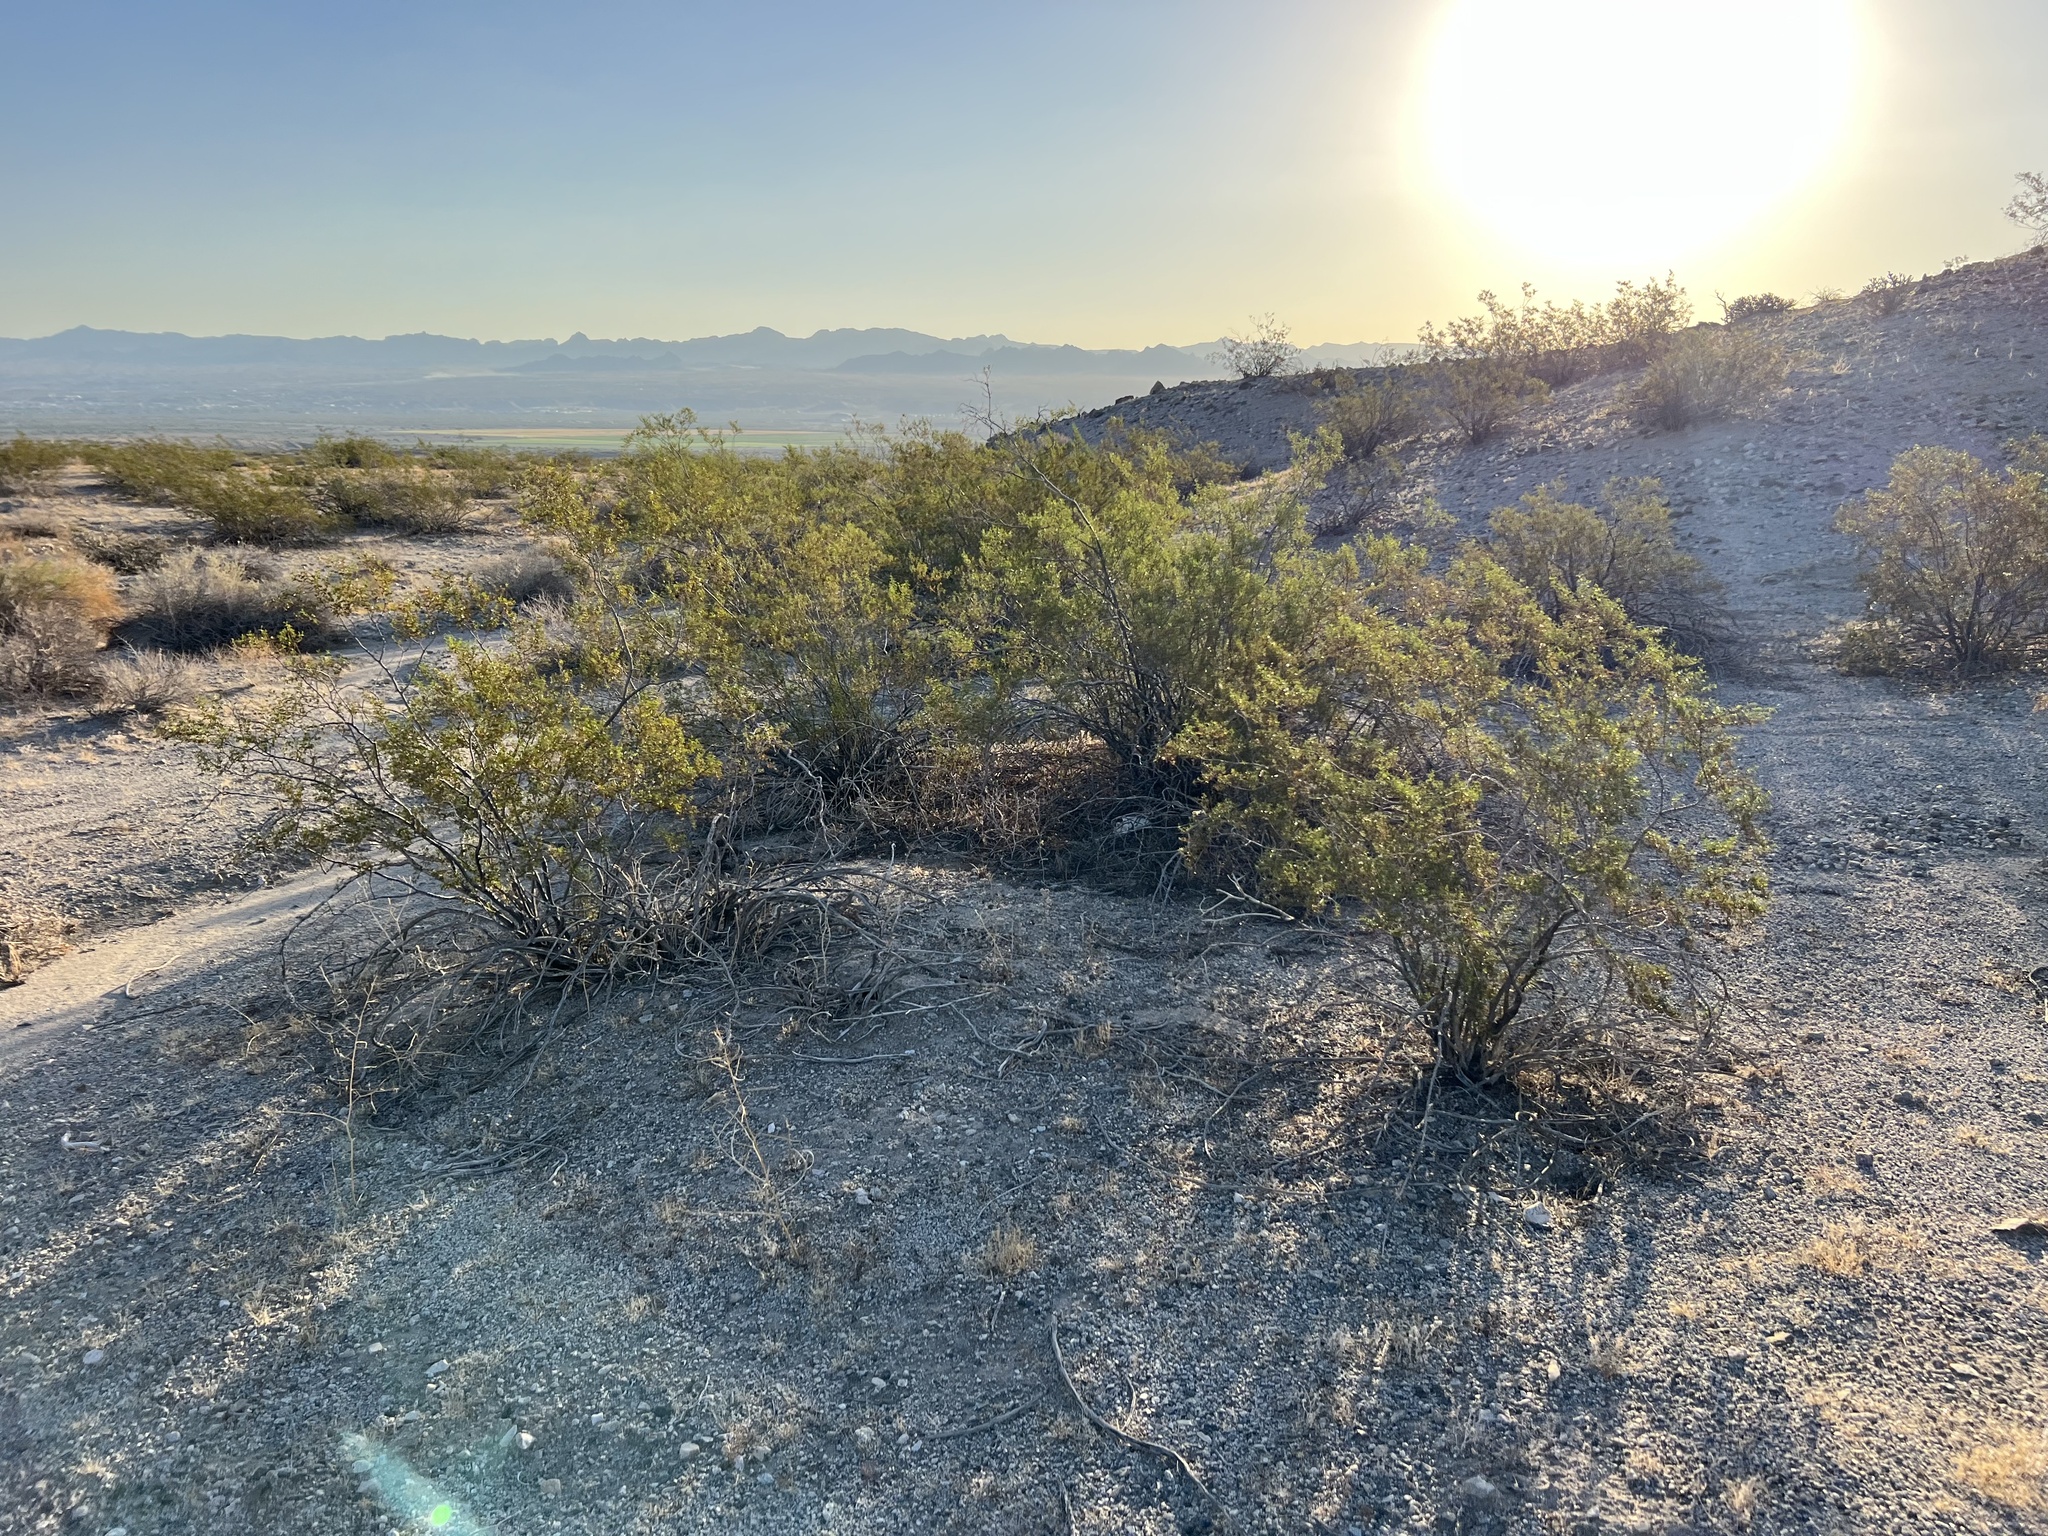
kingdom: Plantae
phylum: Tracheophyta
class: Magnoliopsida
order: Zygophyllales
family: Zygophyllaceae
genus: Larrea
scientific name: Larrea tridentata
